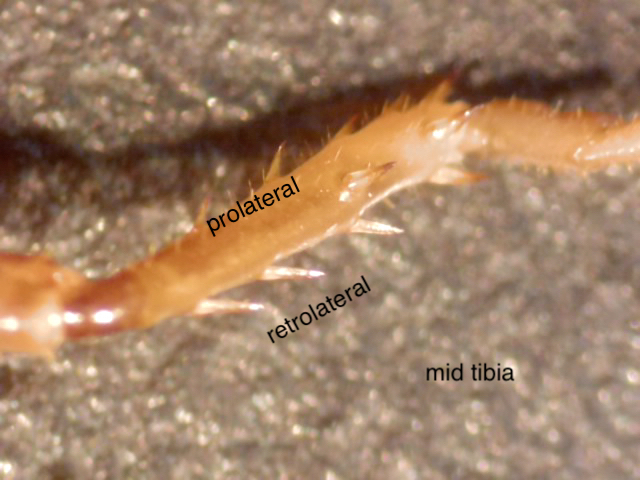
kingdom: Animalia
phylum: Arthropoda
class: Insecta
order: Orthoptera
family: Anostostomatidae
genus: Hemiandrus
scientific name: Hemiandrus sterope
